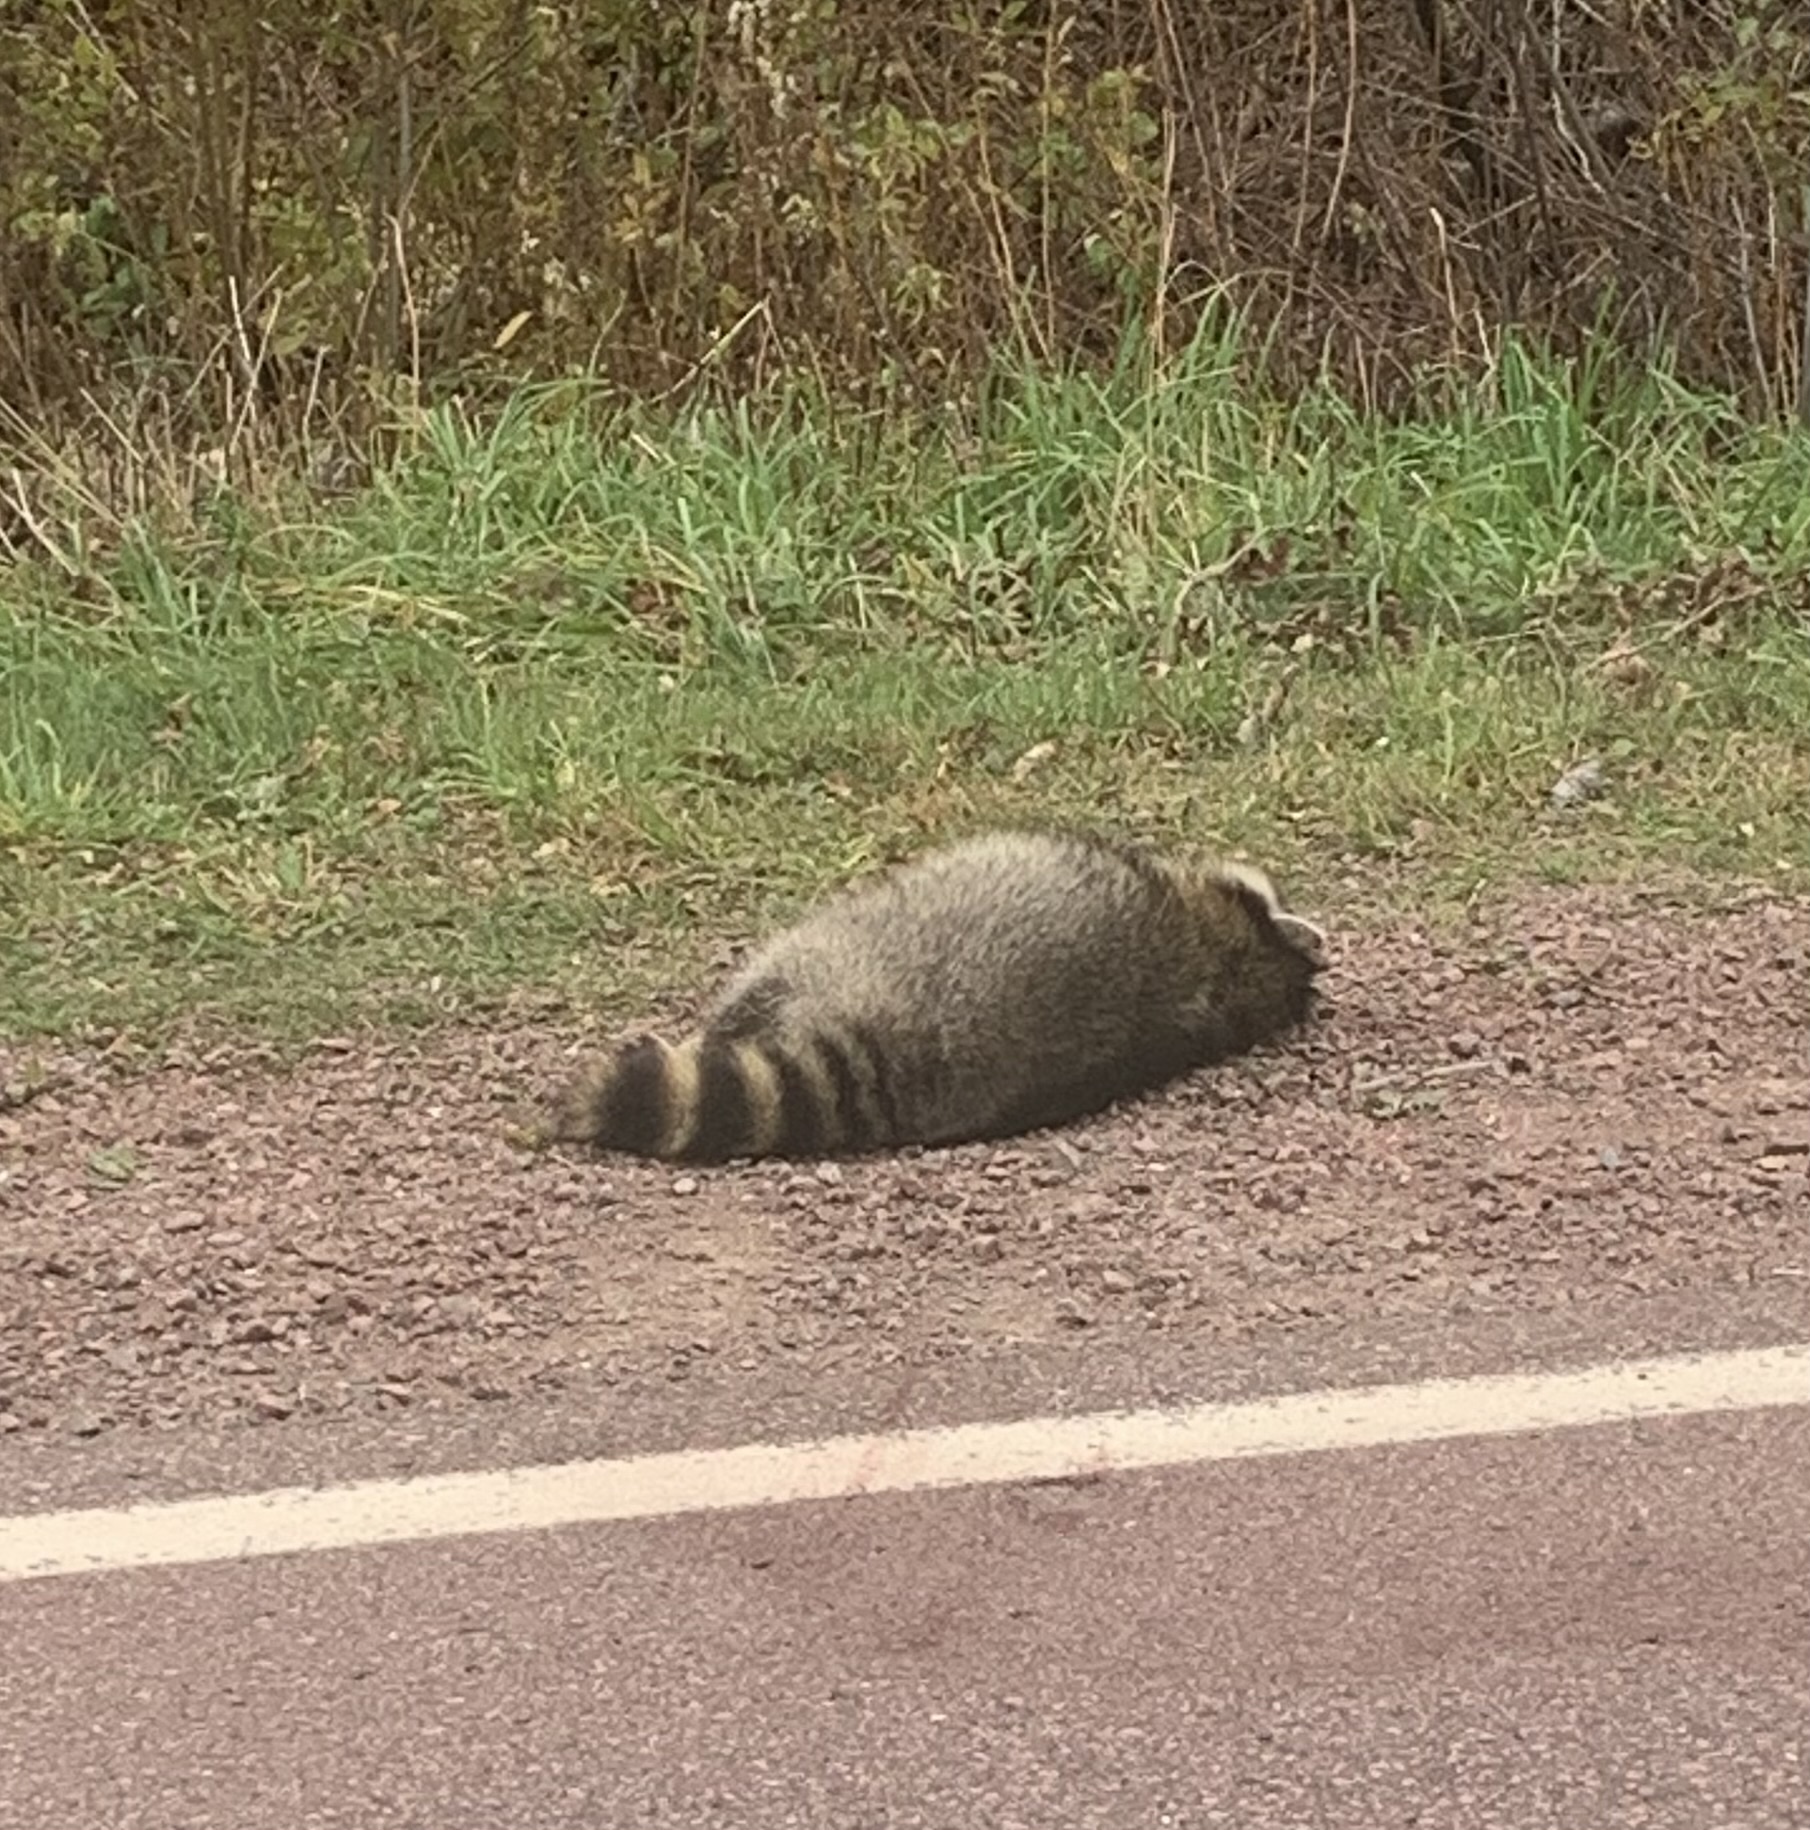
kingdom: Animalia
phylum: Chordata
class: Mammalia
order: Carnivora
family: Procyonidae
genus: Procyon
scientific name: Procyon lotor
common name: Raccoon
